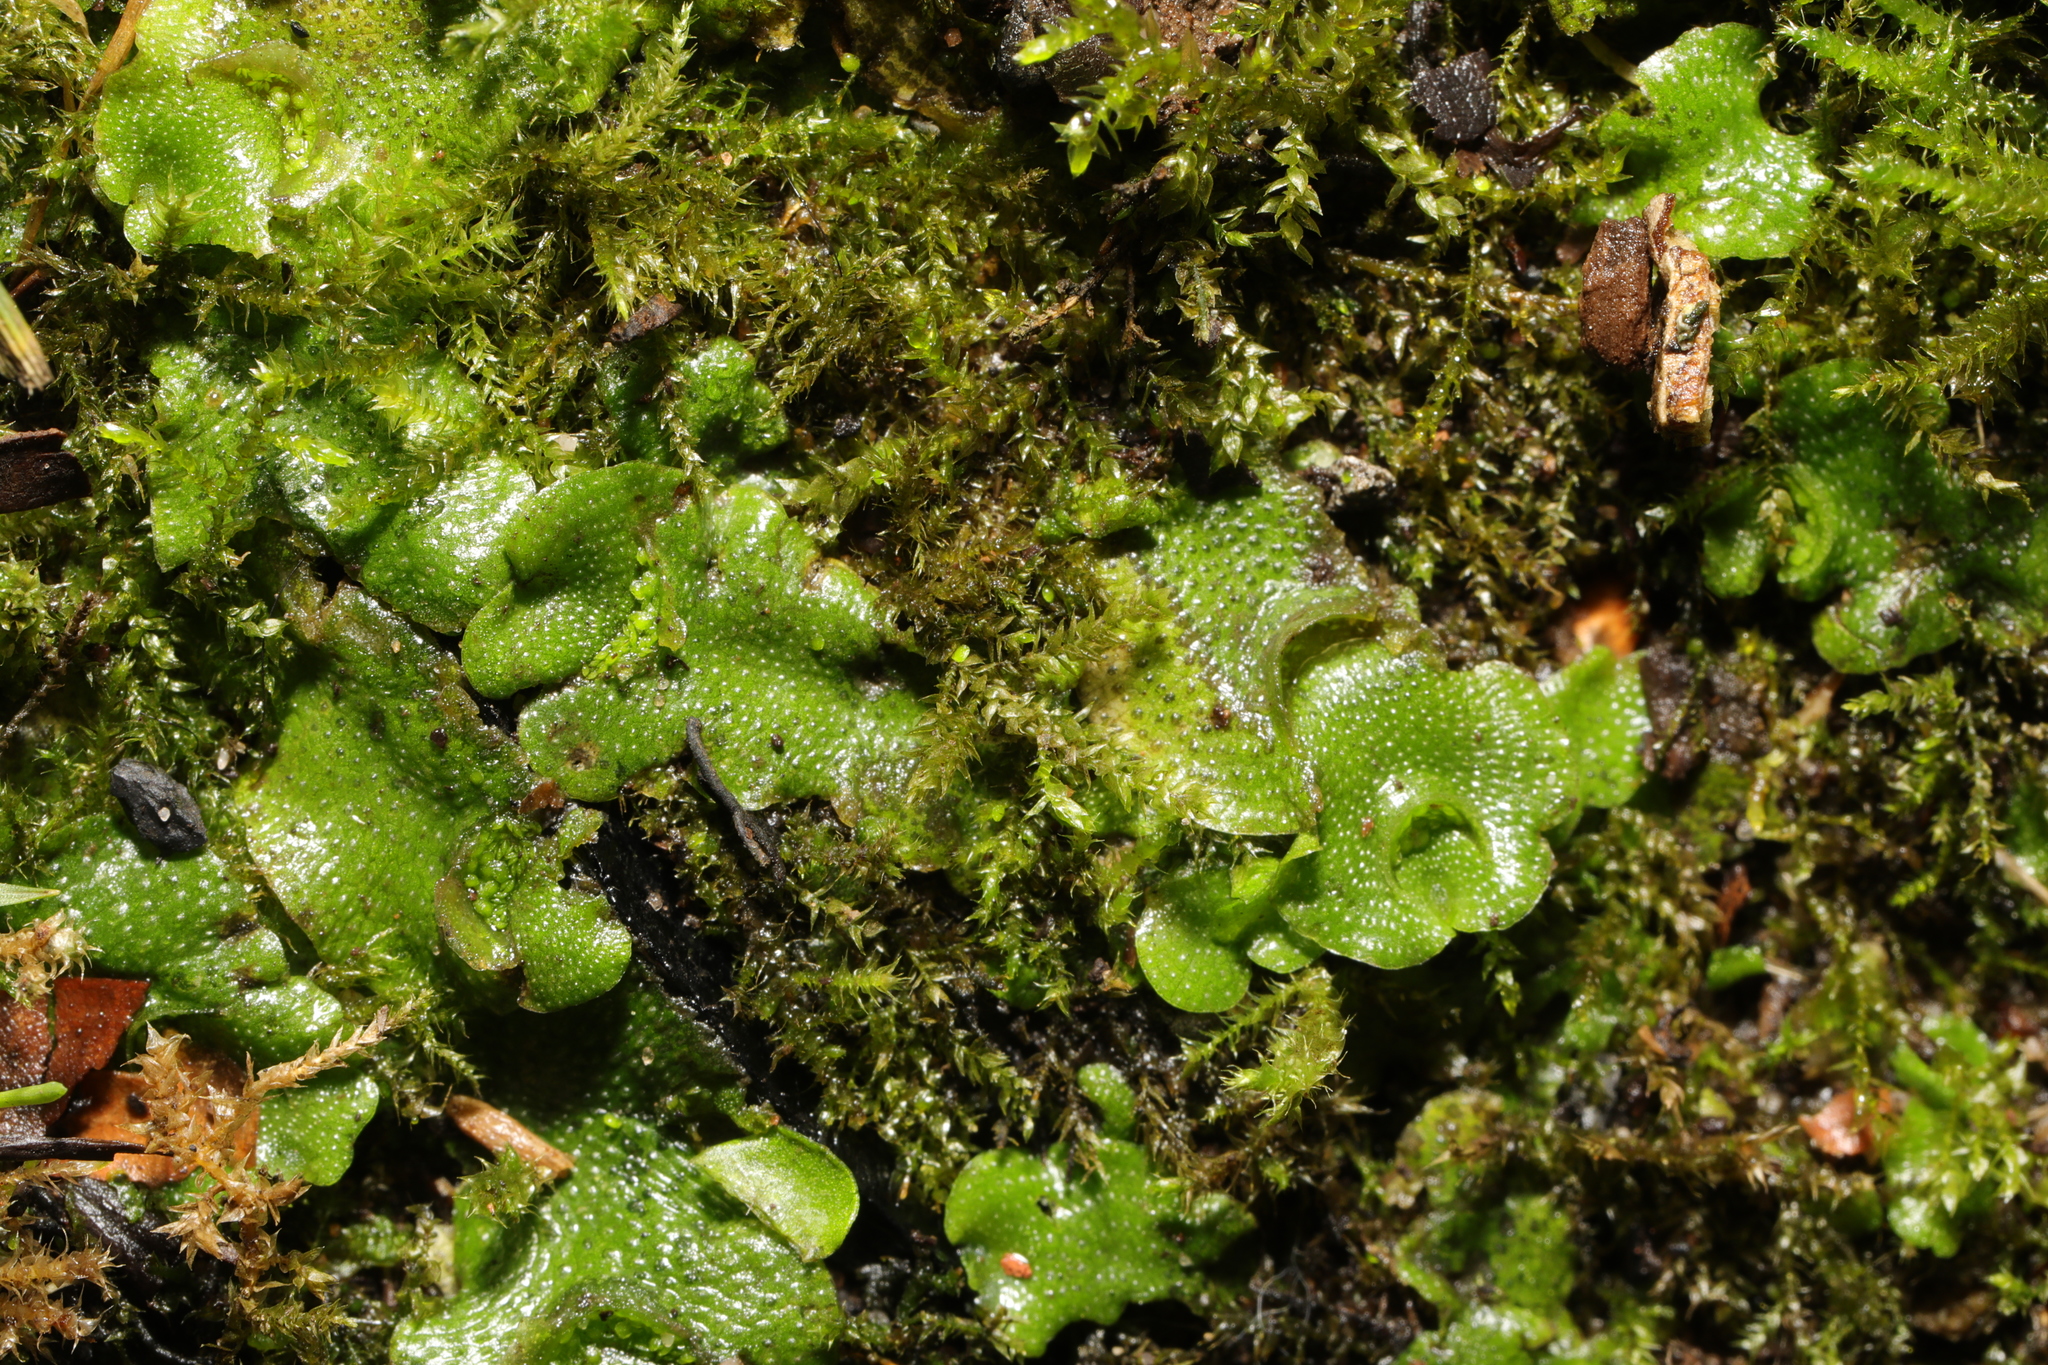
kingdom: Plantae
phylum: Marchantiophyta
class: Marchantiopsida
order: Lunulariales
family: Lunulariaceae
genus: Lunularia
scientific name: Lunularia cruciata
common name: Crescent-cup liverwort
